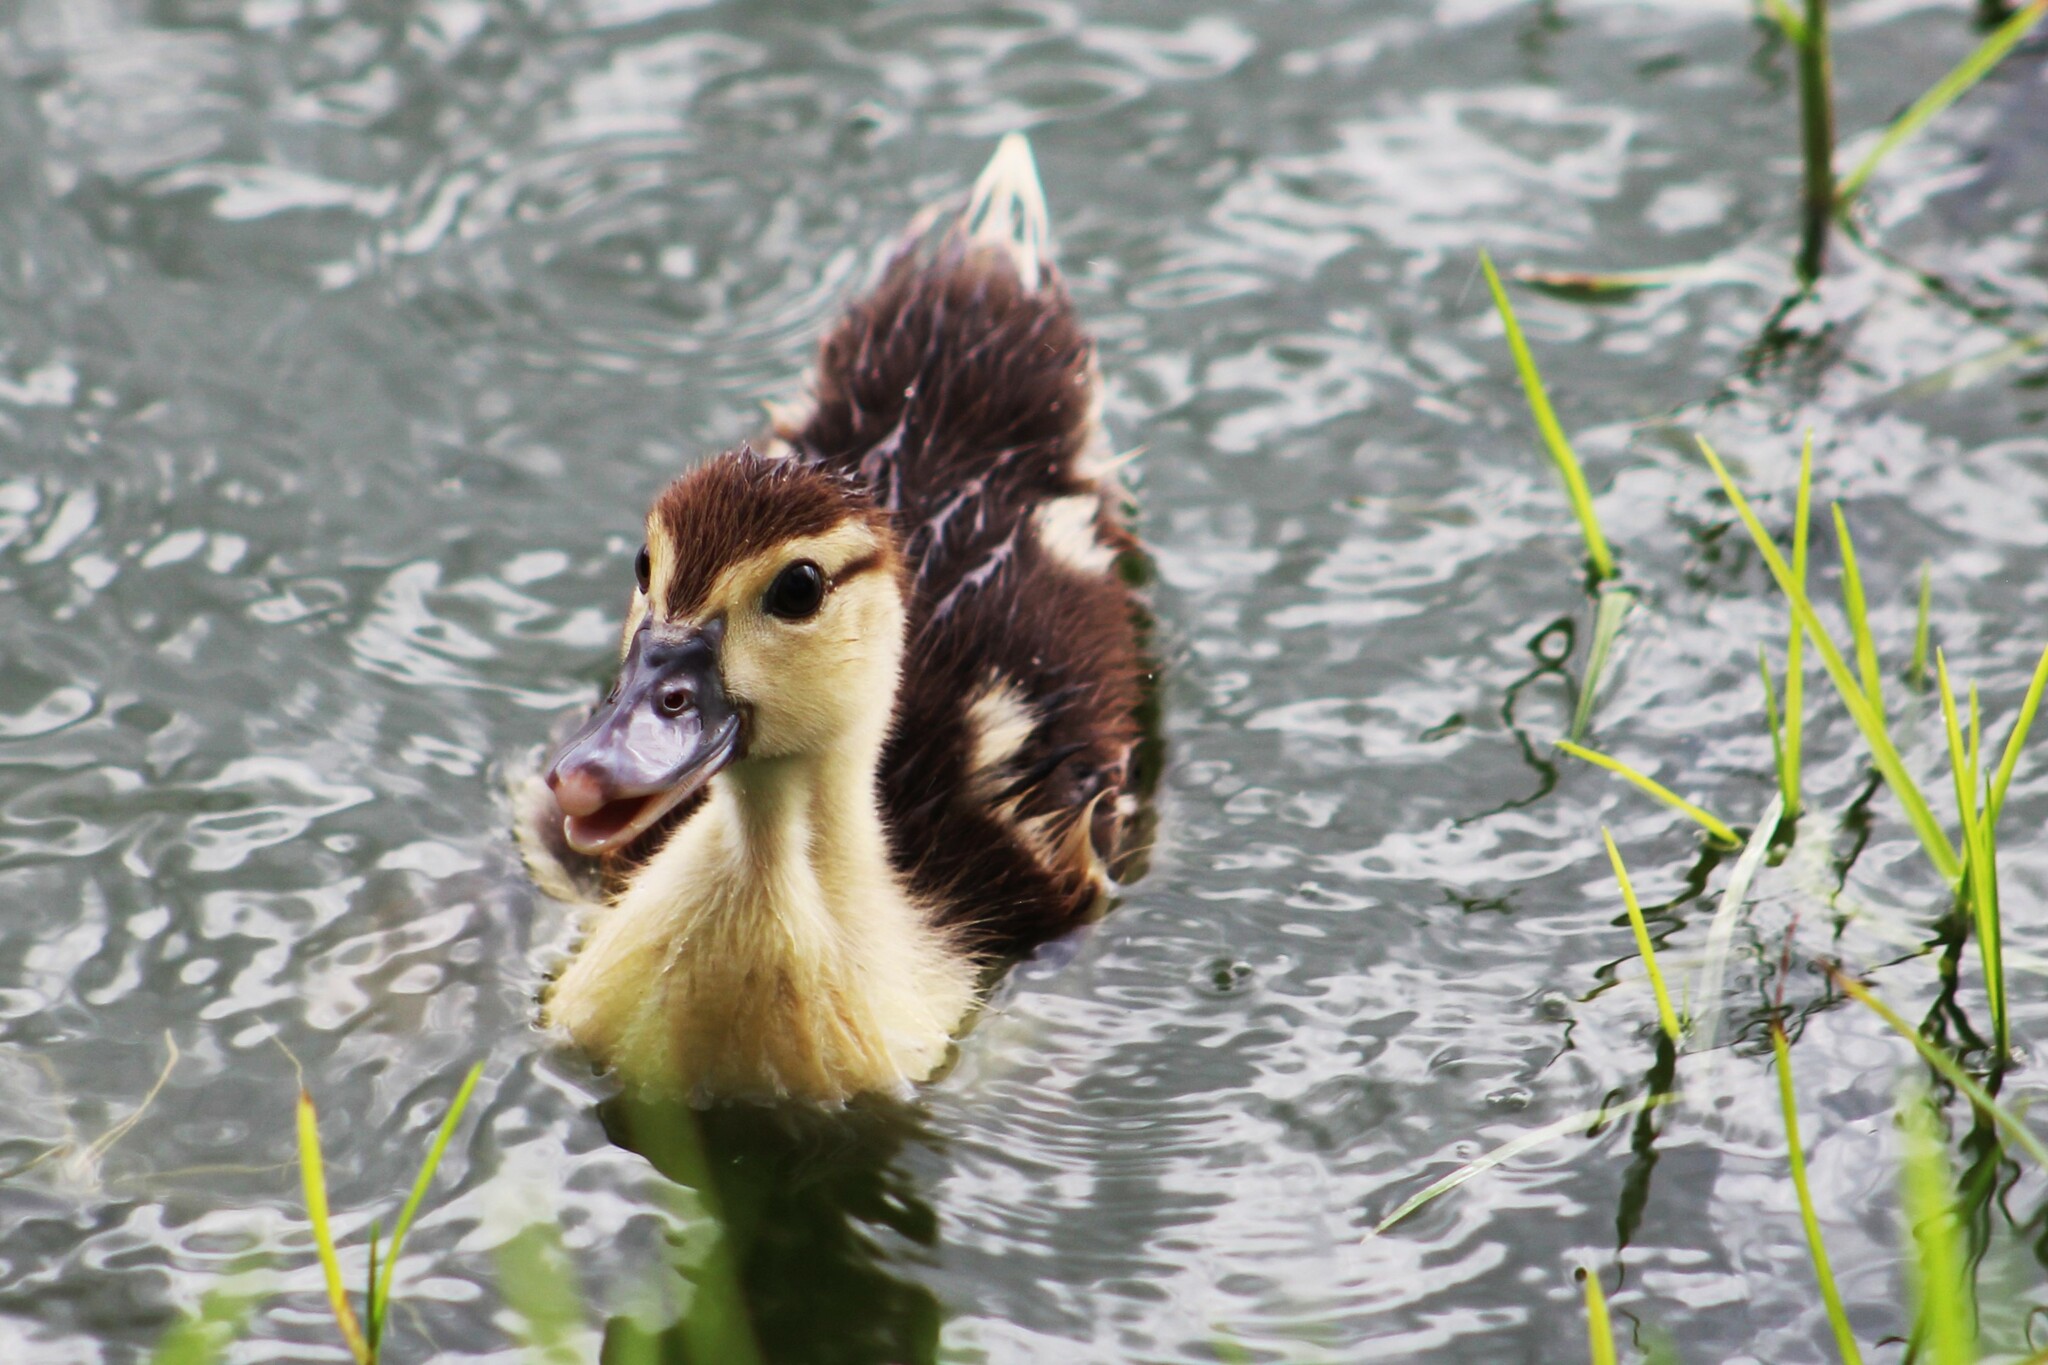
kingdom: Animalia
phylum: Chordata
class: Aves
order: Anseriformes
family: Anatidae
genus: Cairina
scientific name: Cairina moschata
